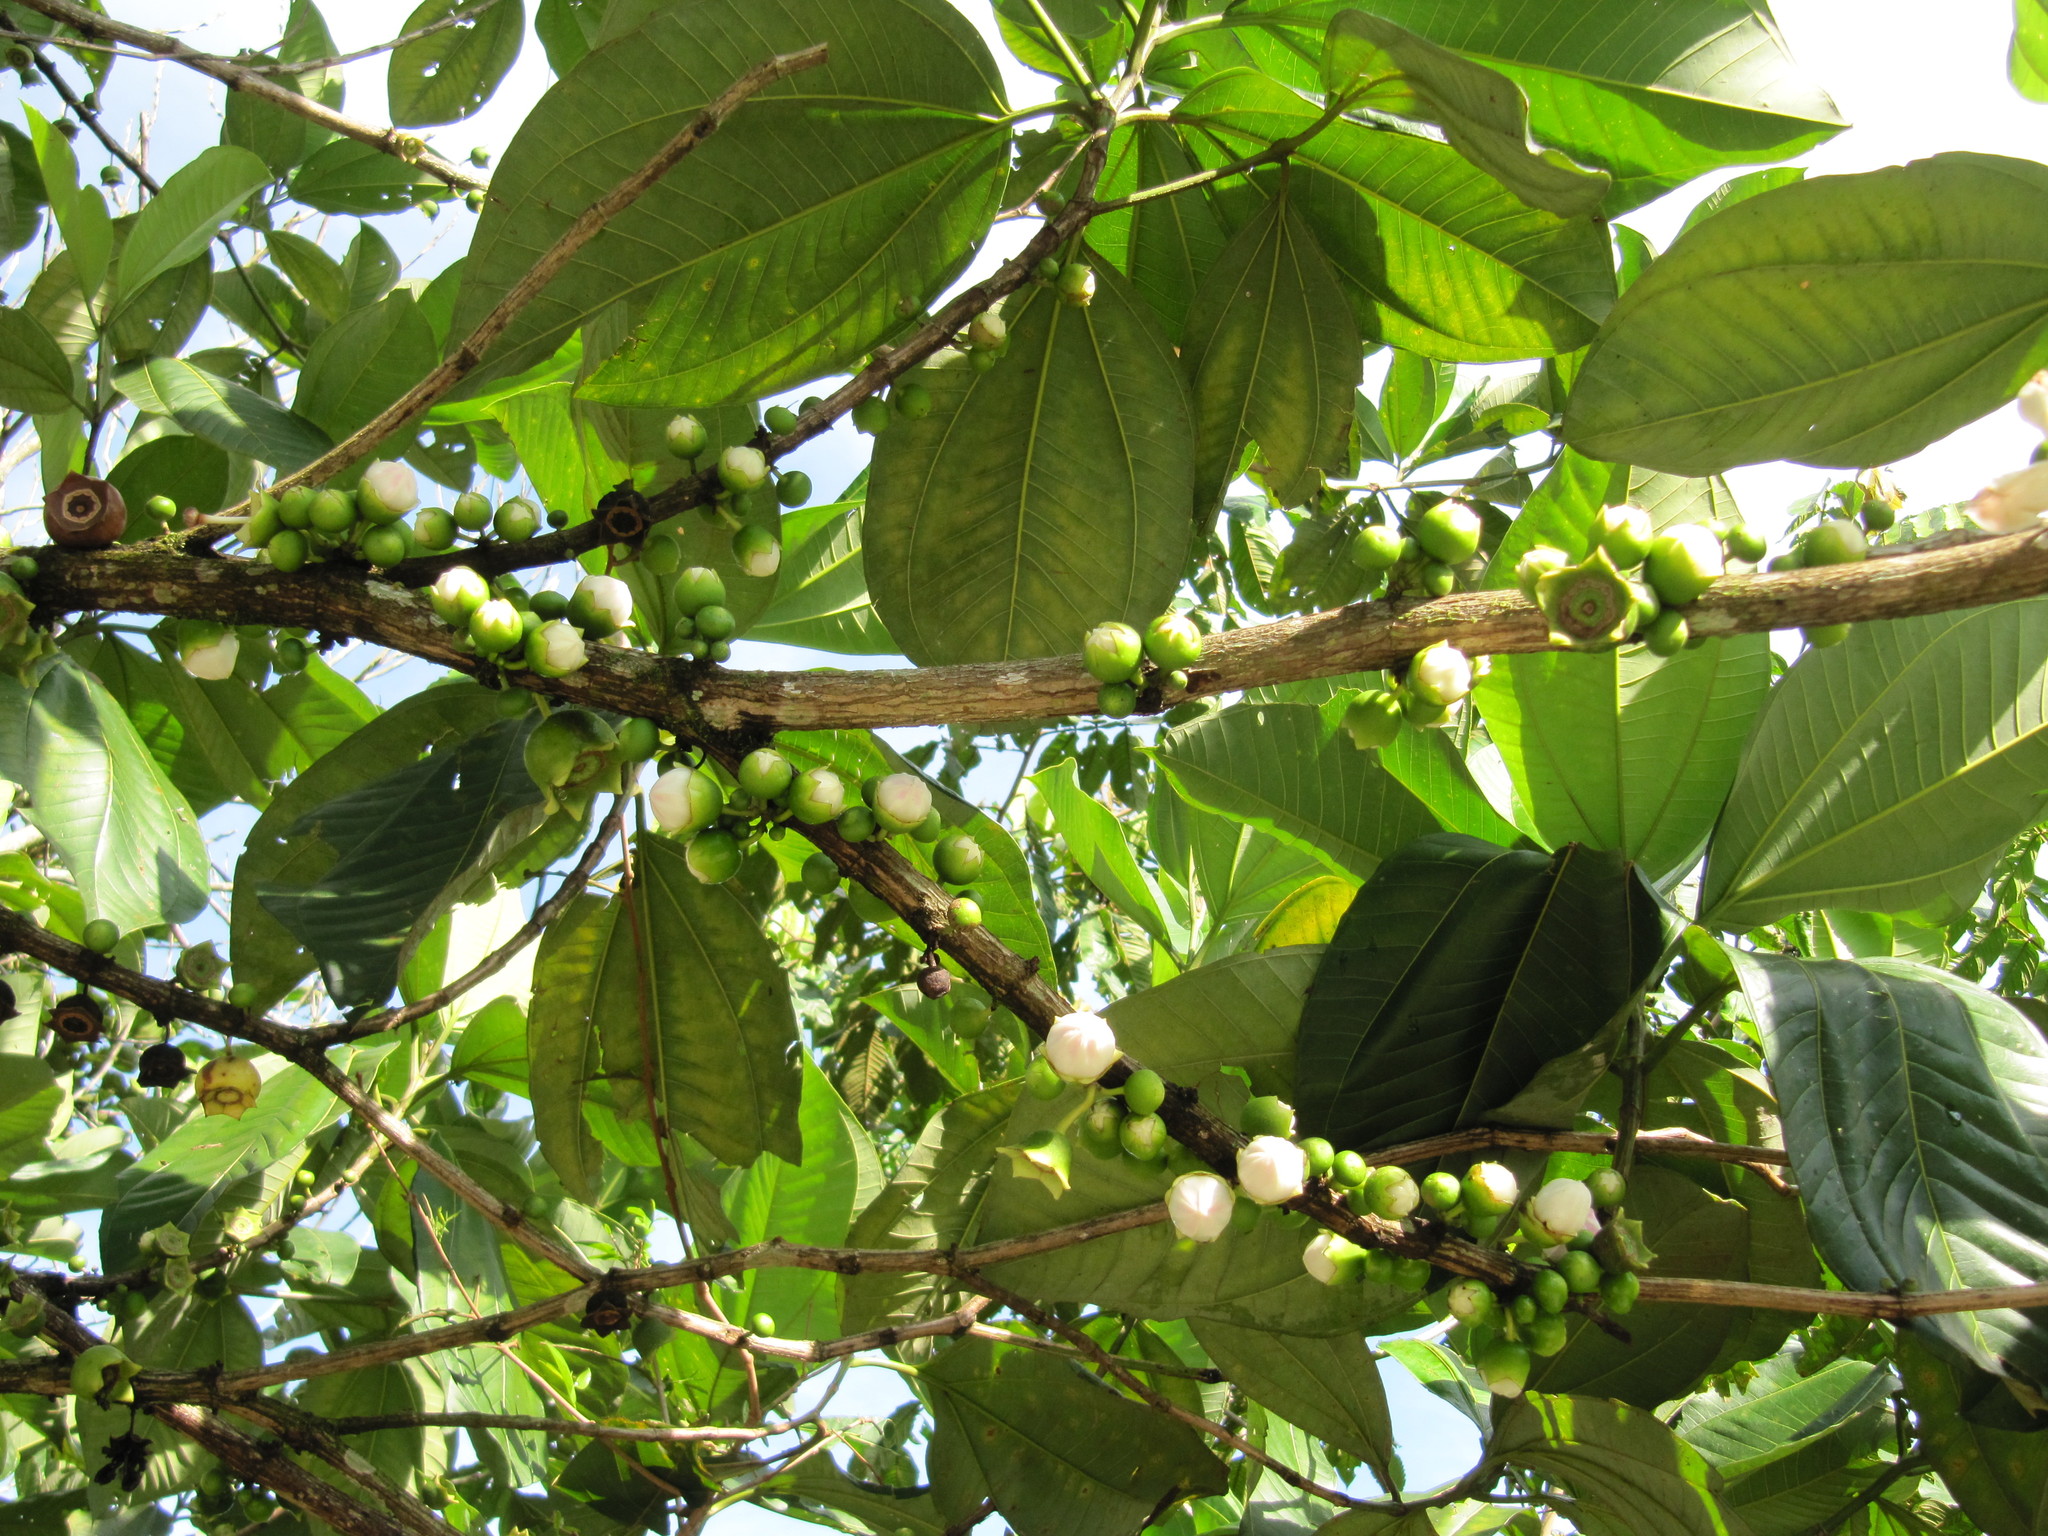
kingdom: Plantae
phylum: Tracheophyta
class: Magnoliopsida
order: Myrtales
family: Melastomataceae
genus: Bellucia
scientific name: Bellucia pentamera
